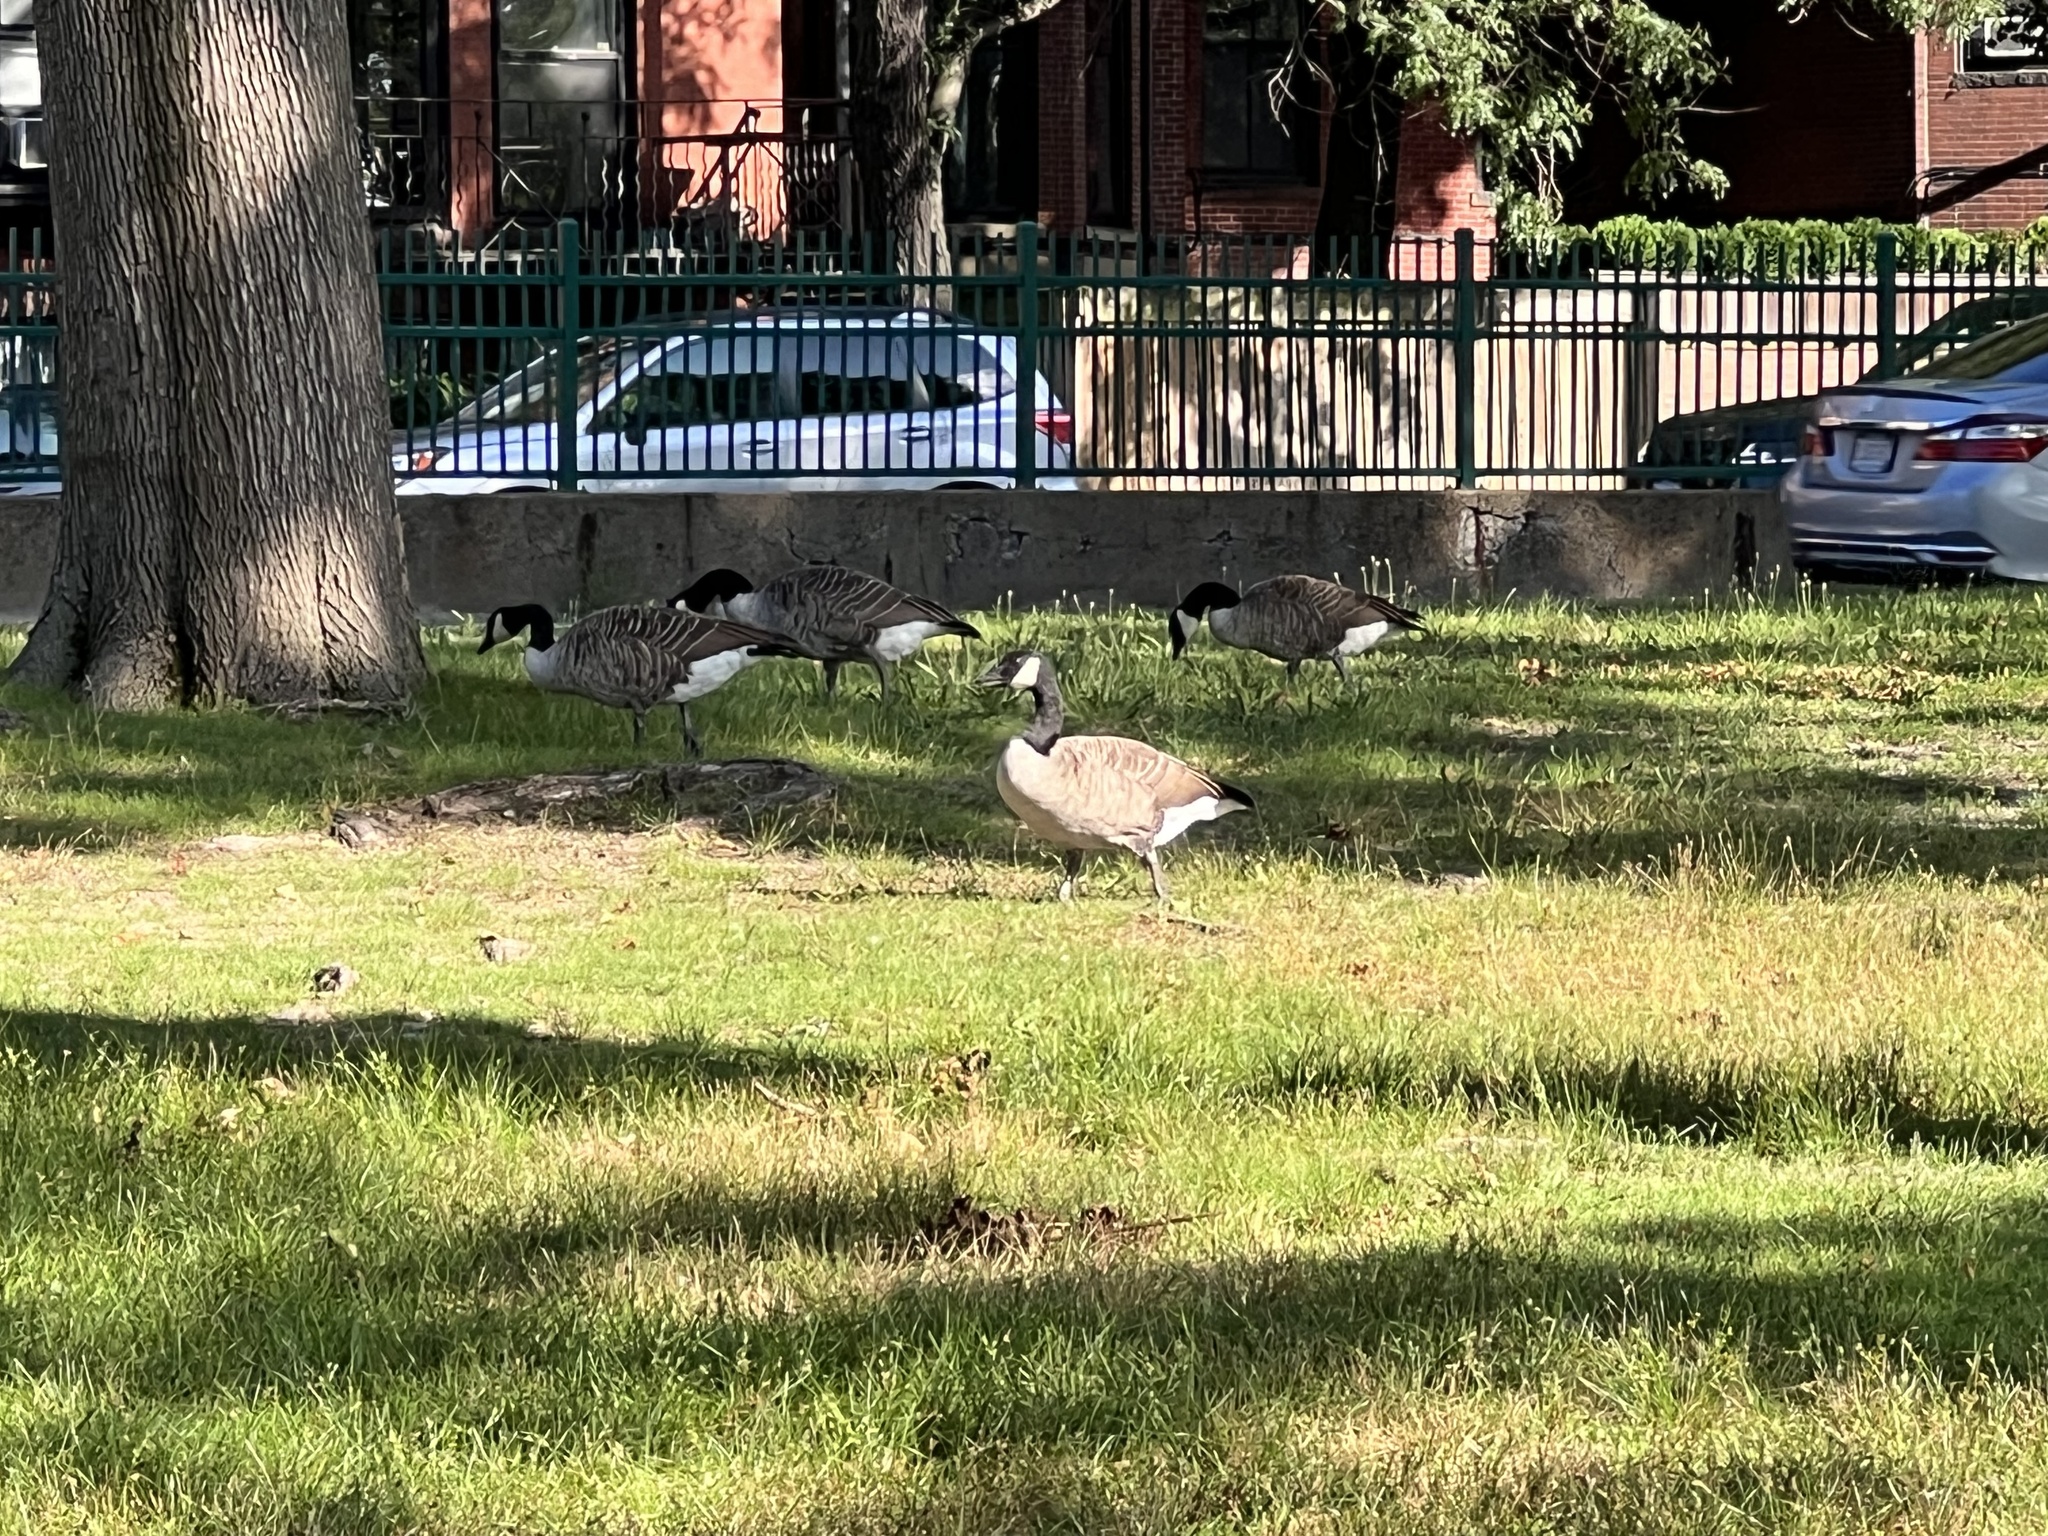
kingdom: Animalia
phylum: Chordata
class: Aves
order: Anseriformes
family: Anatidae
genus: Branta
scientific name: Branta canadensis
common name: Canada goose
